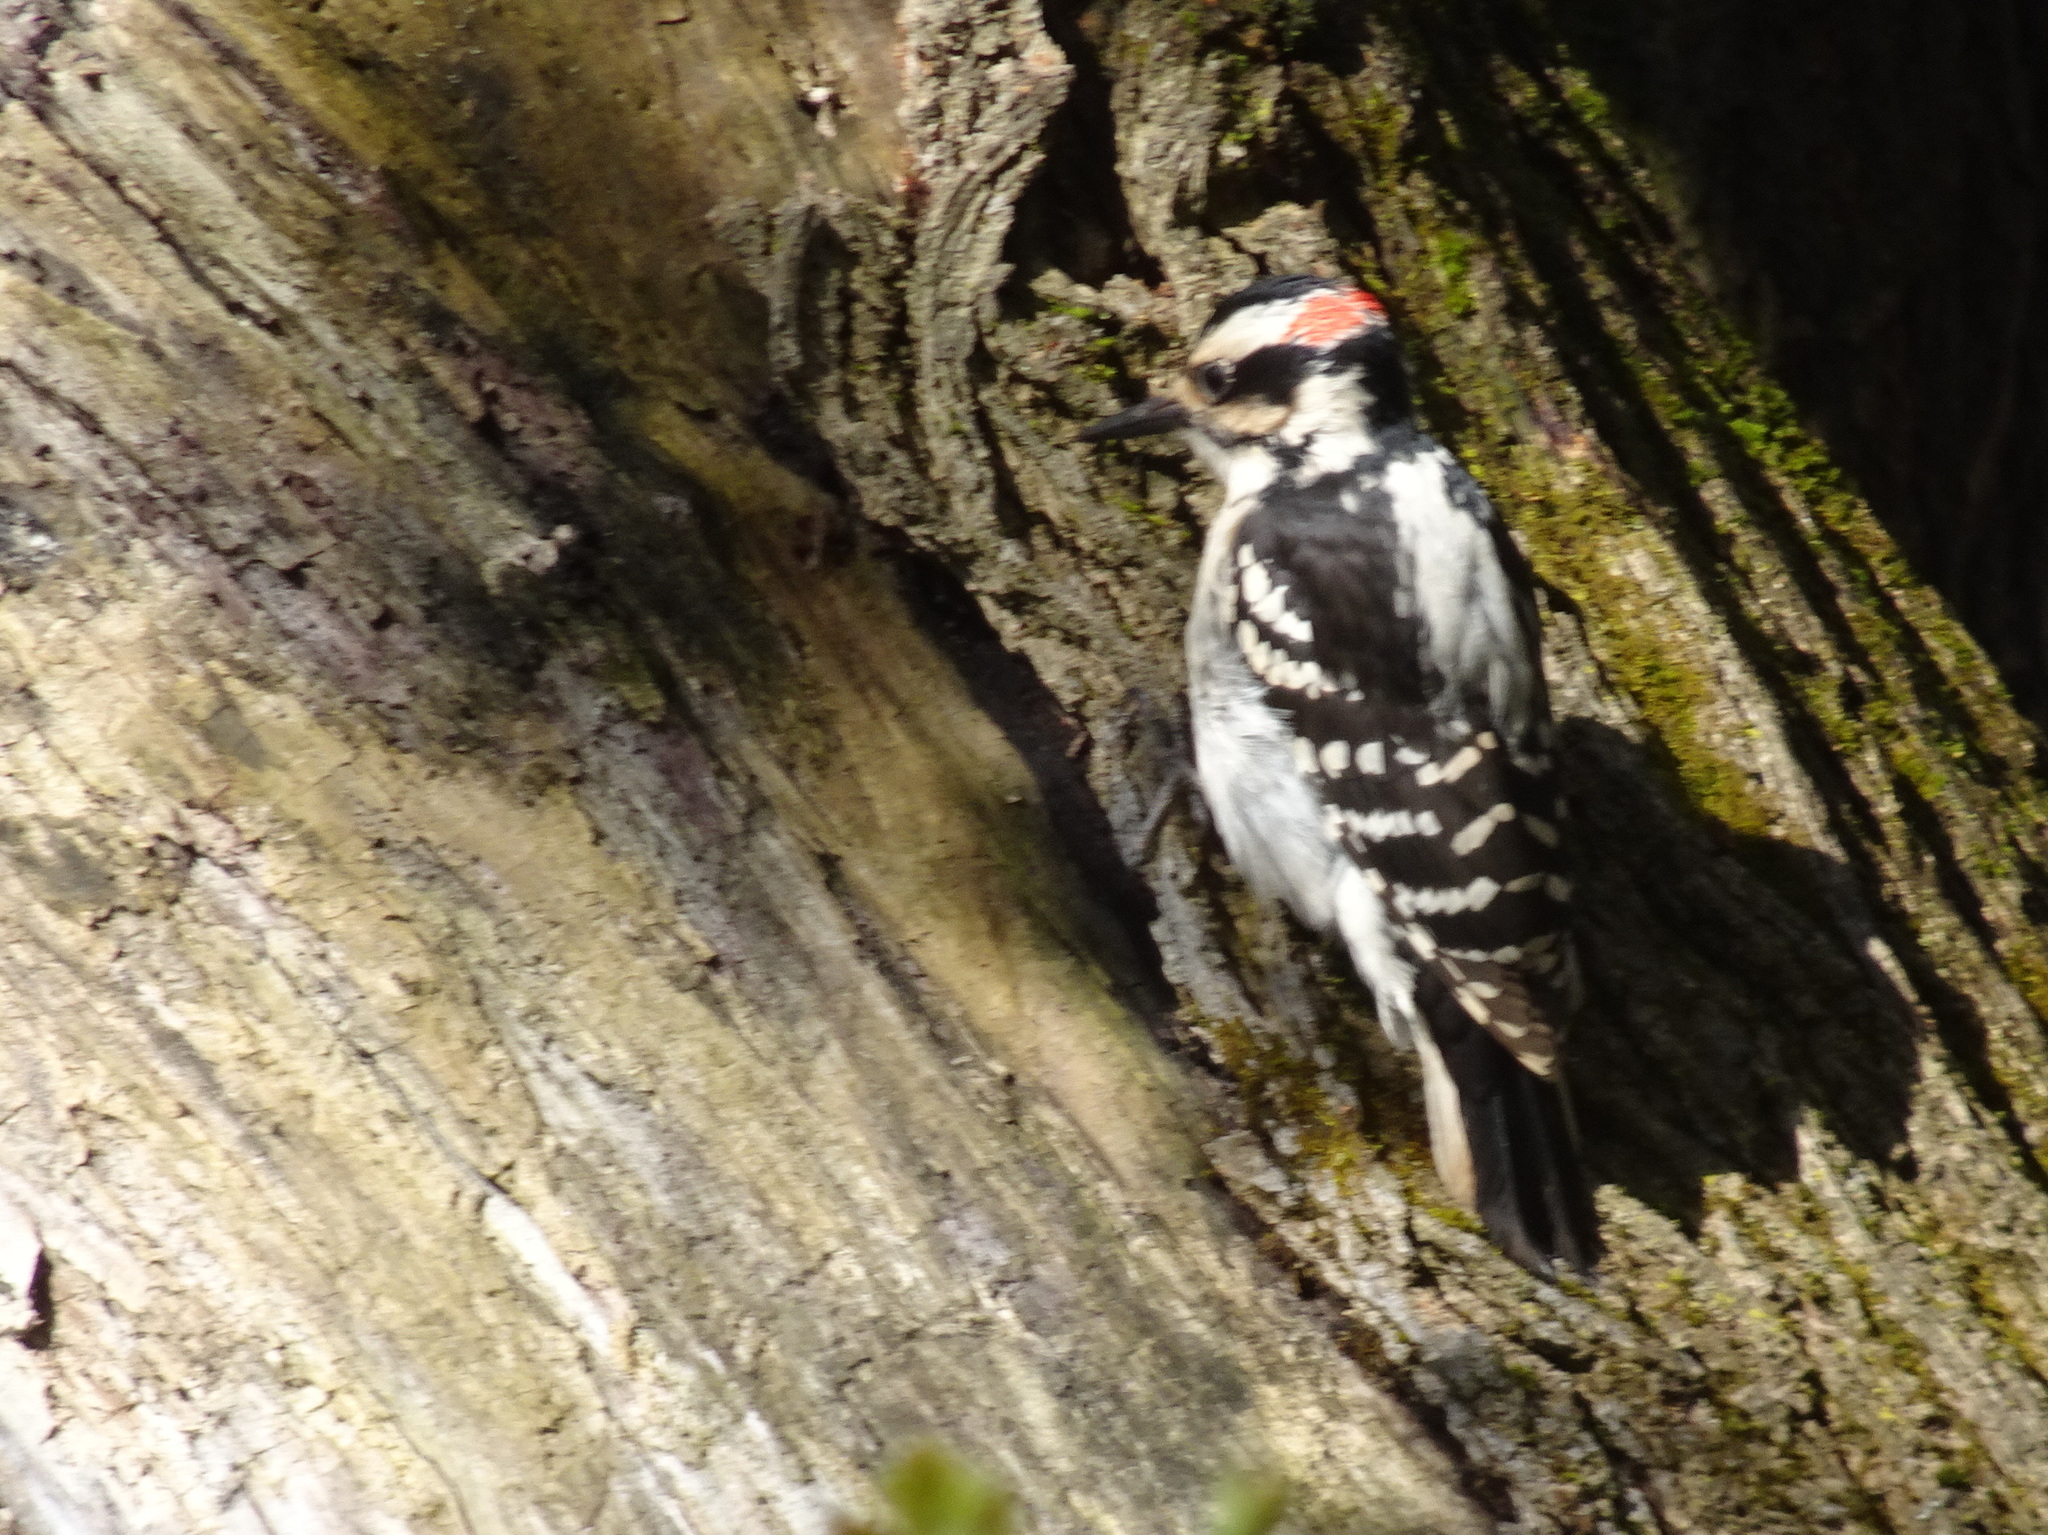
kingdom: Animalia
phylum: Chordata
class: Aves
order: Piciformes
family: Picidae
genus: Leuconotopicus
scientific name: Leuconotopicus villosus
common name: Hairy woodpecker
